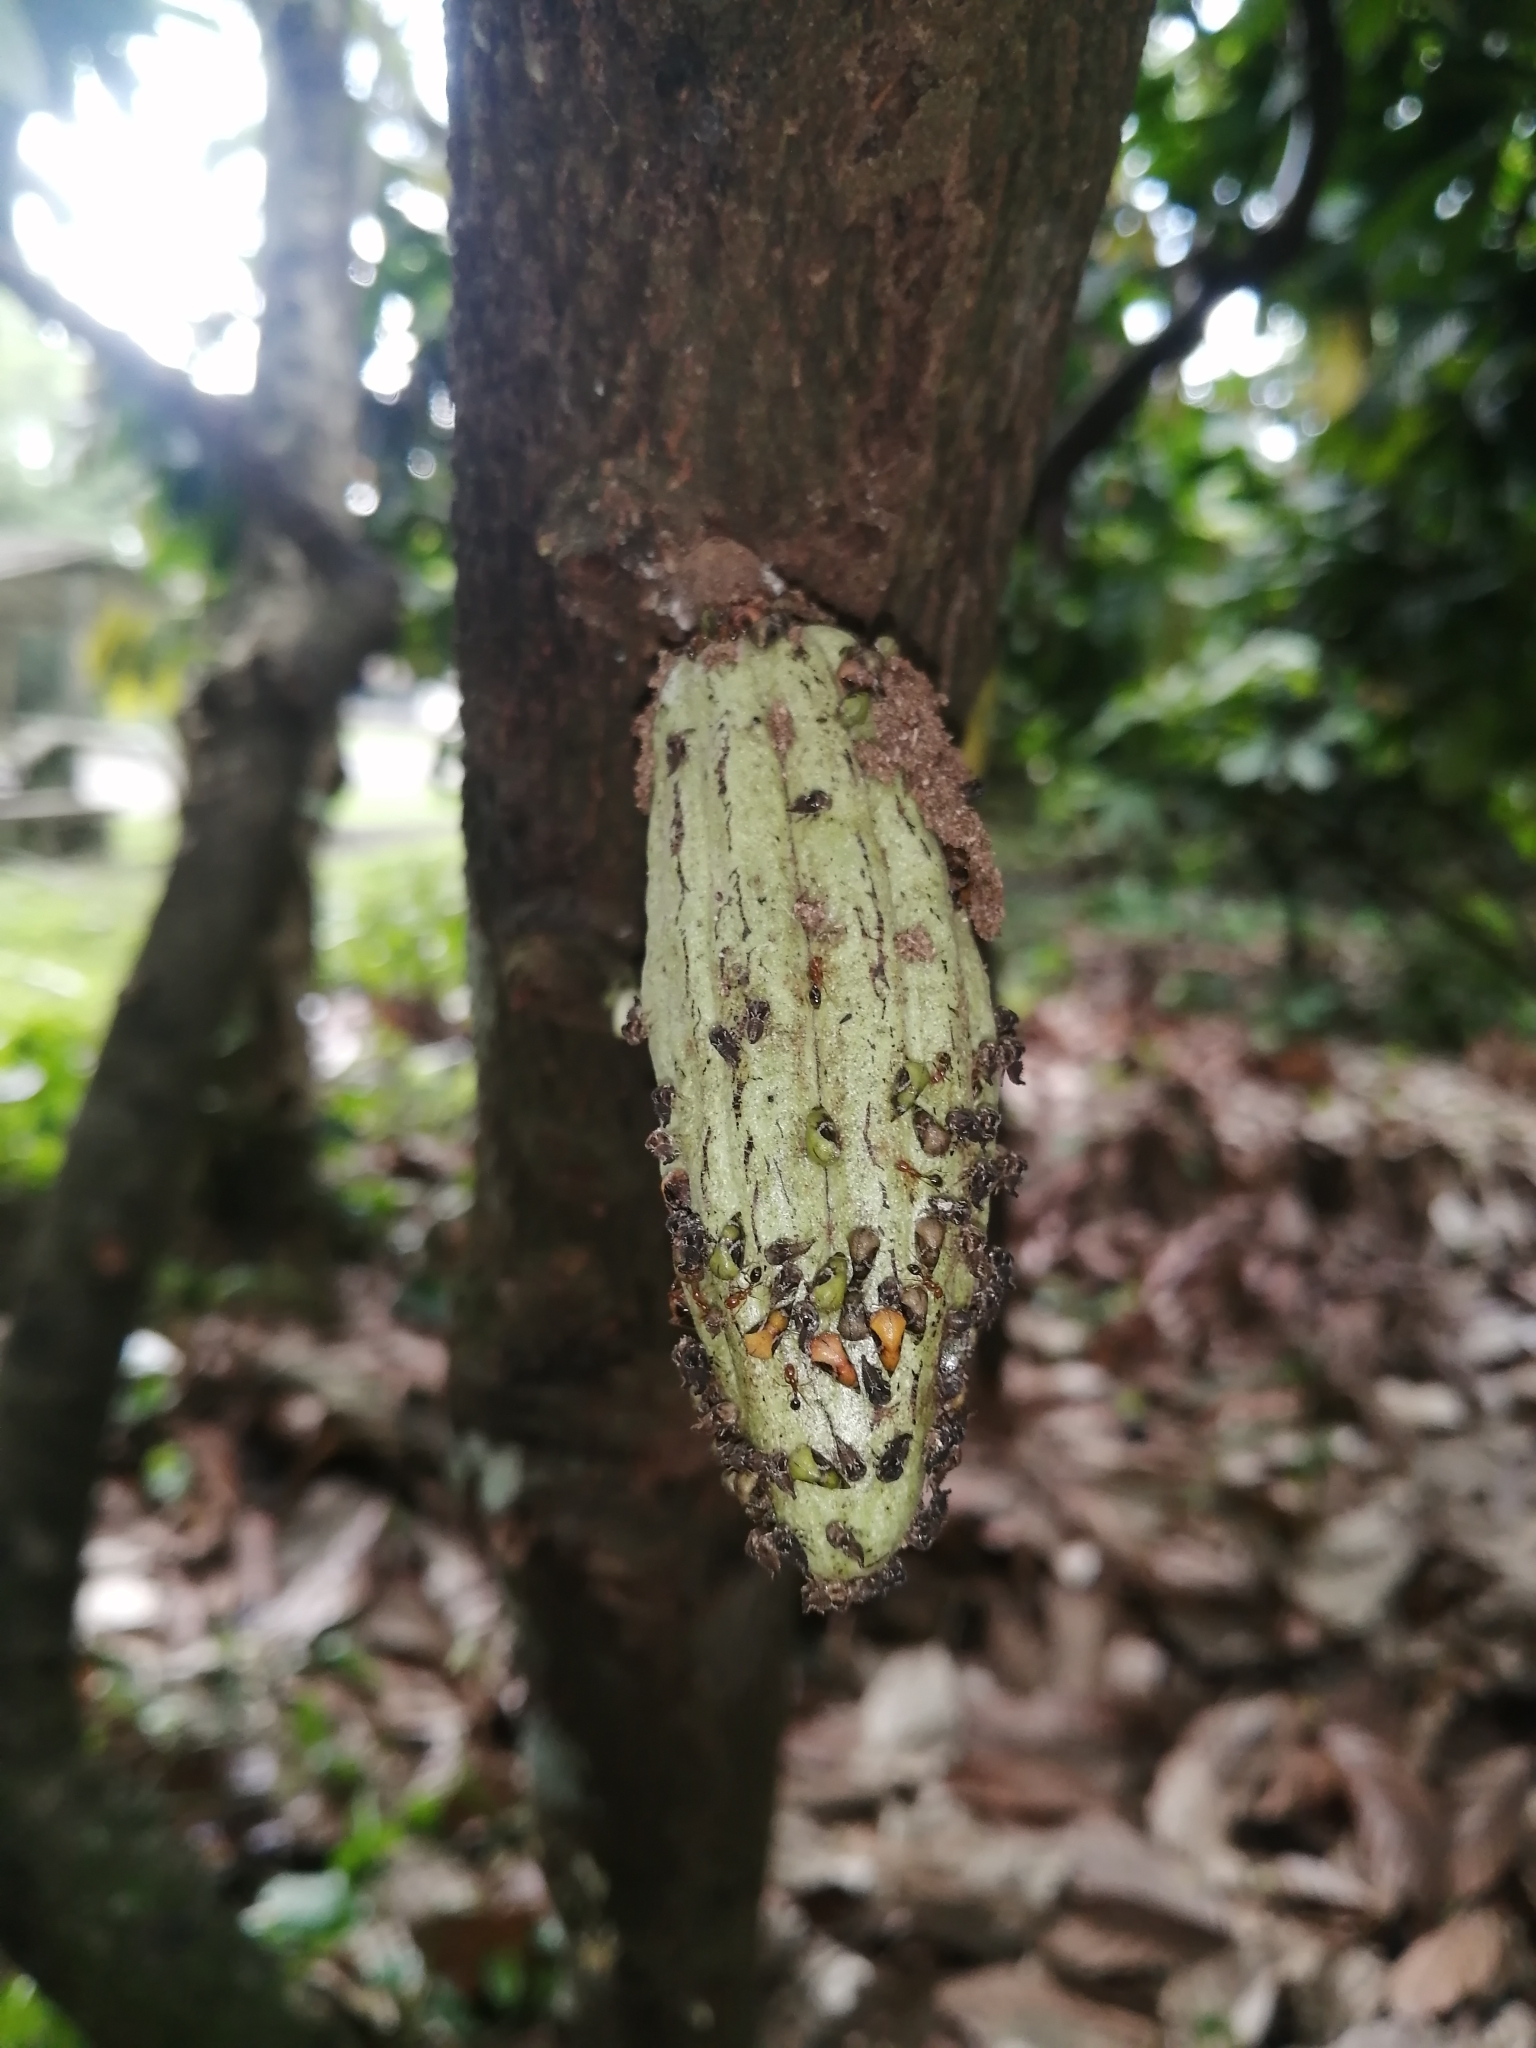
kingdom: Plantae
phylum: Tracheophyta
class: Magnoliopsida
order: Malvales
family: Malvaceae
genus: Theobroma
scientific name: Theobroma cacao
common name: Cocoa
